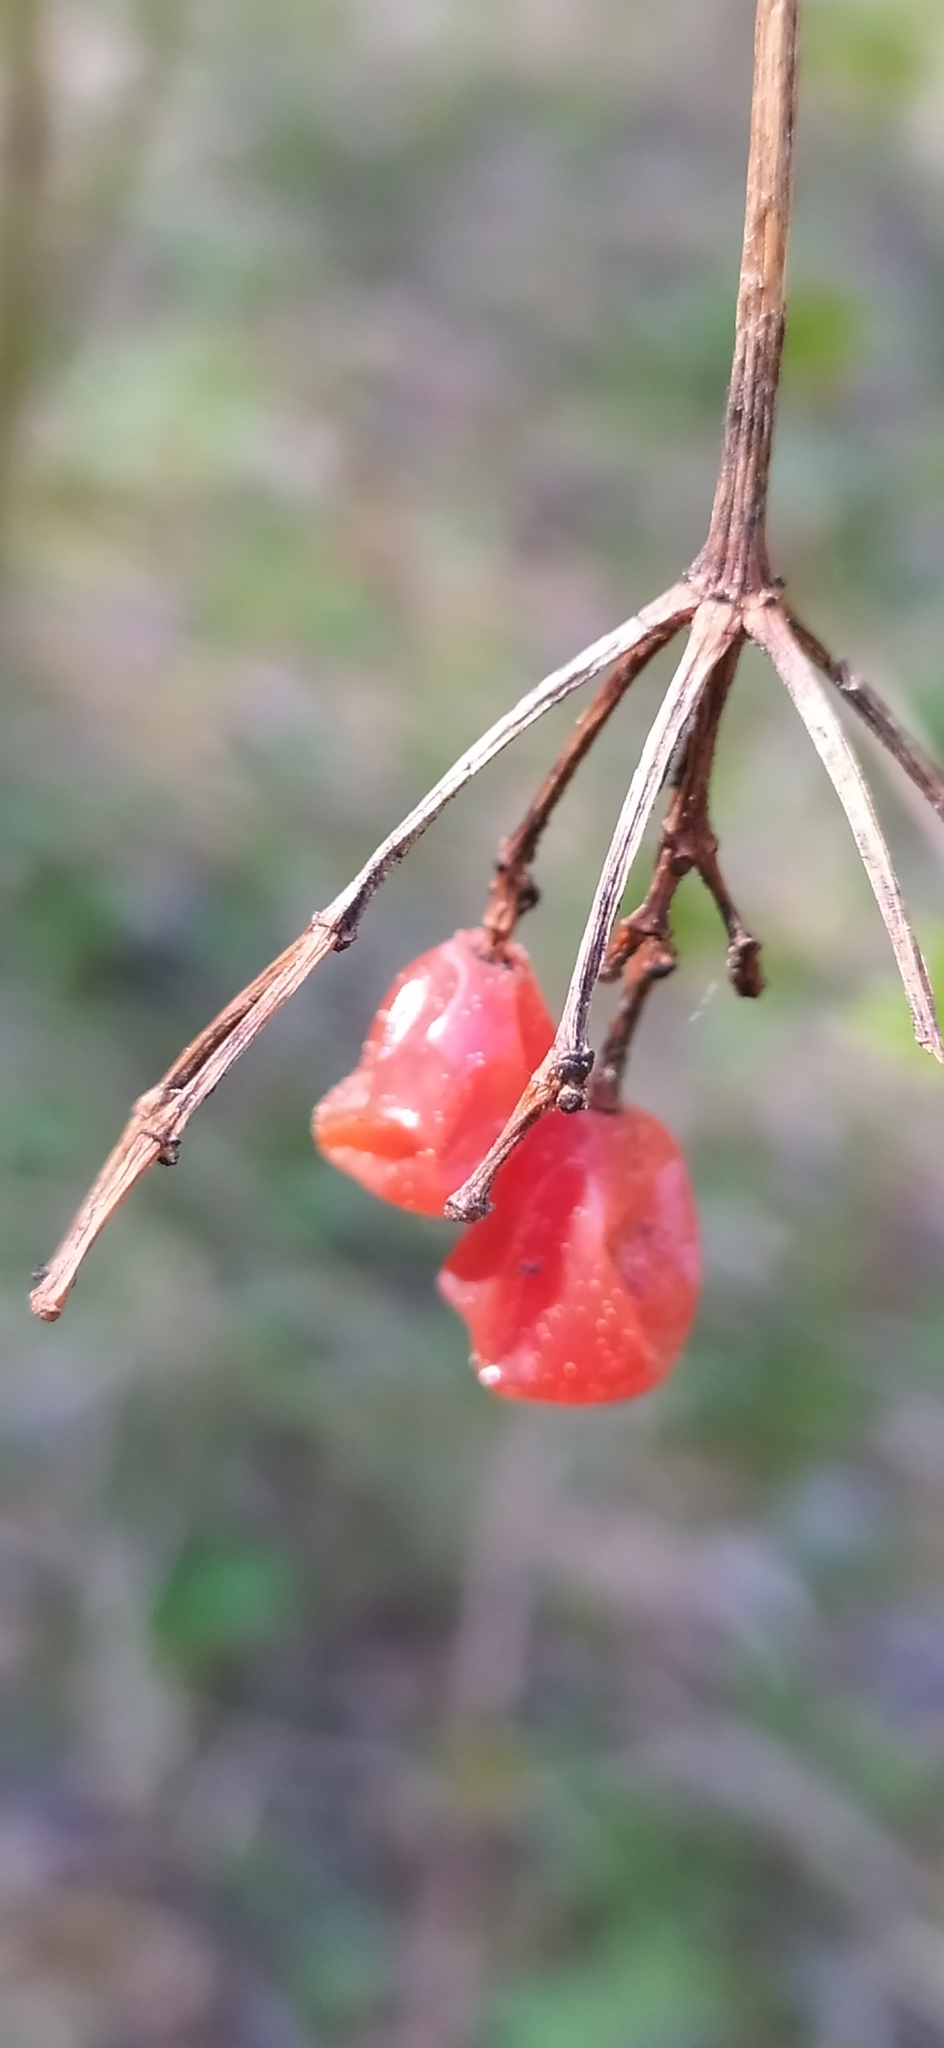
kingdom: Plantae
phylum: Tracheophyta
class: Magnoliopsida
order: Dipsacales
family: Viburnaceae
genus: Viburnum
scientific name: Viburnum opulus
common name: Guelder-rose
